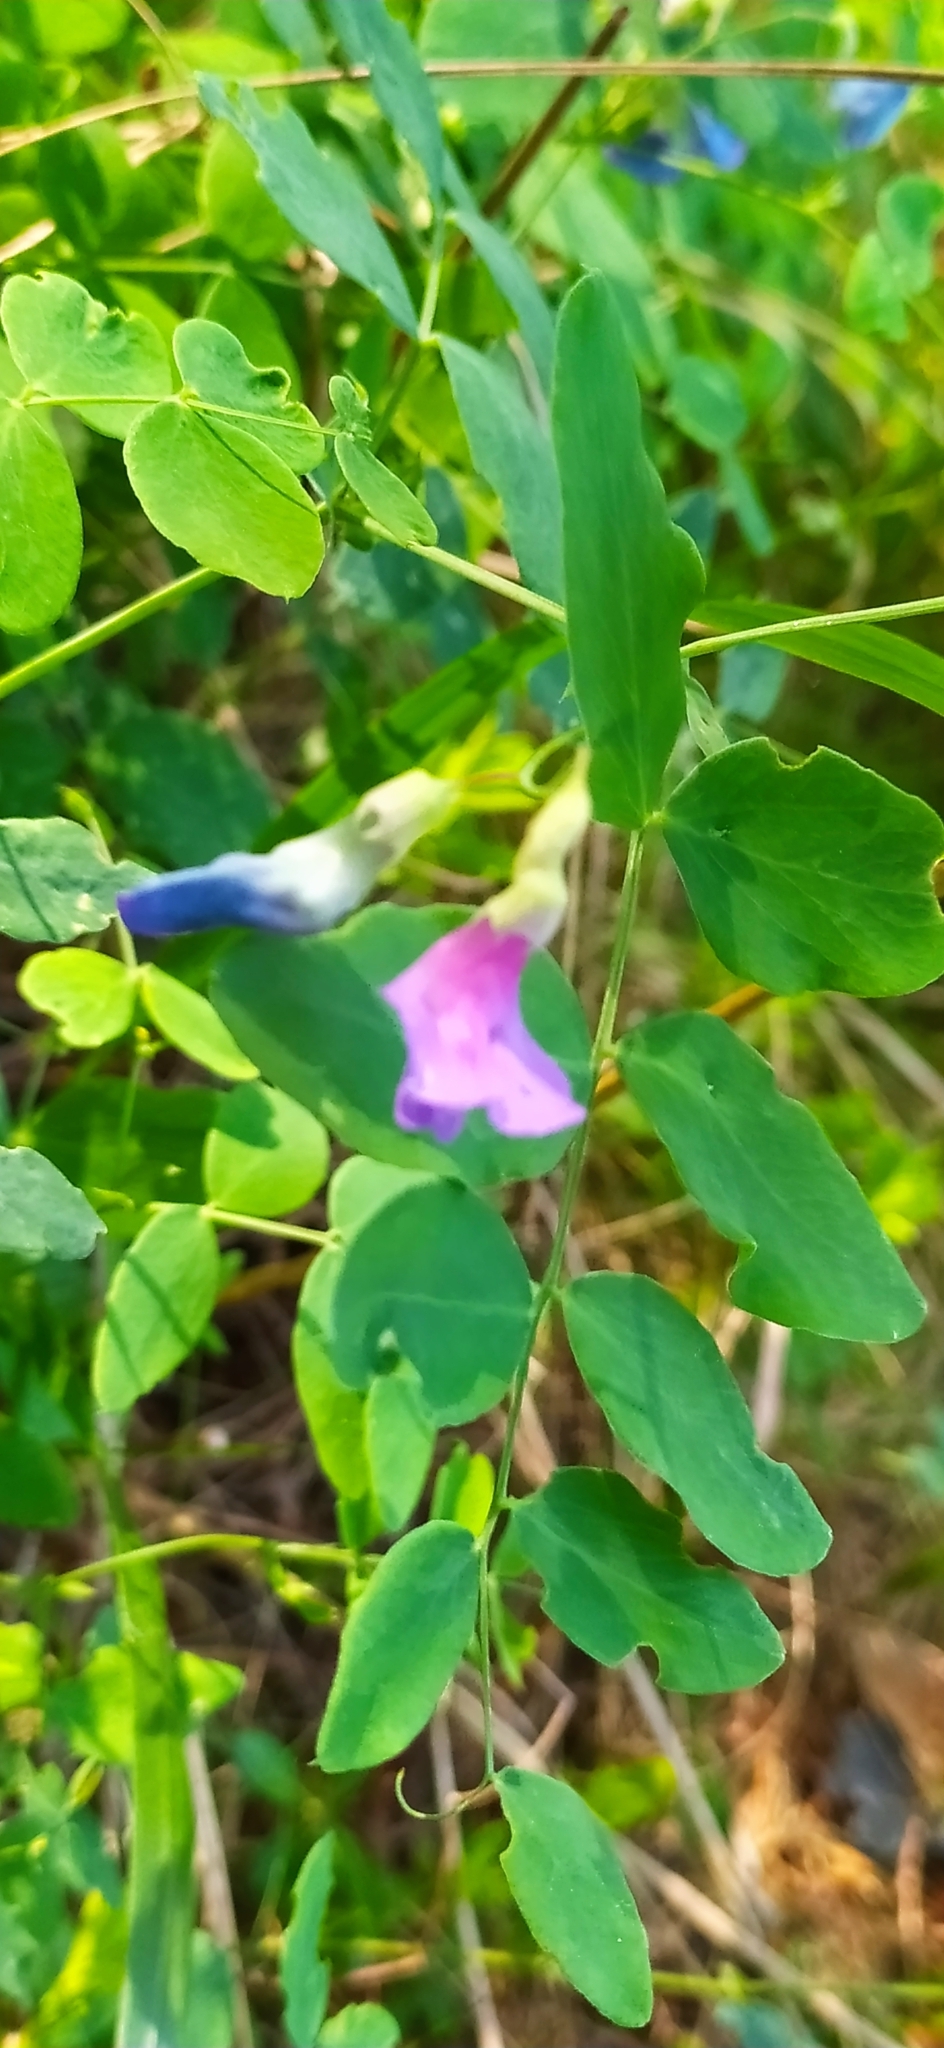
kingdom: Plantae
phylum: Tracheophyta
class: Magnoliopsida
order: Fabales
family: Fabaceae
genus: Lathyrus
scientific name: Lathyrus humilis
